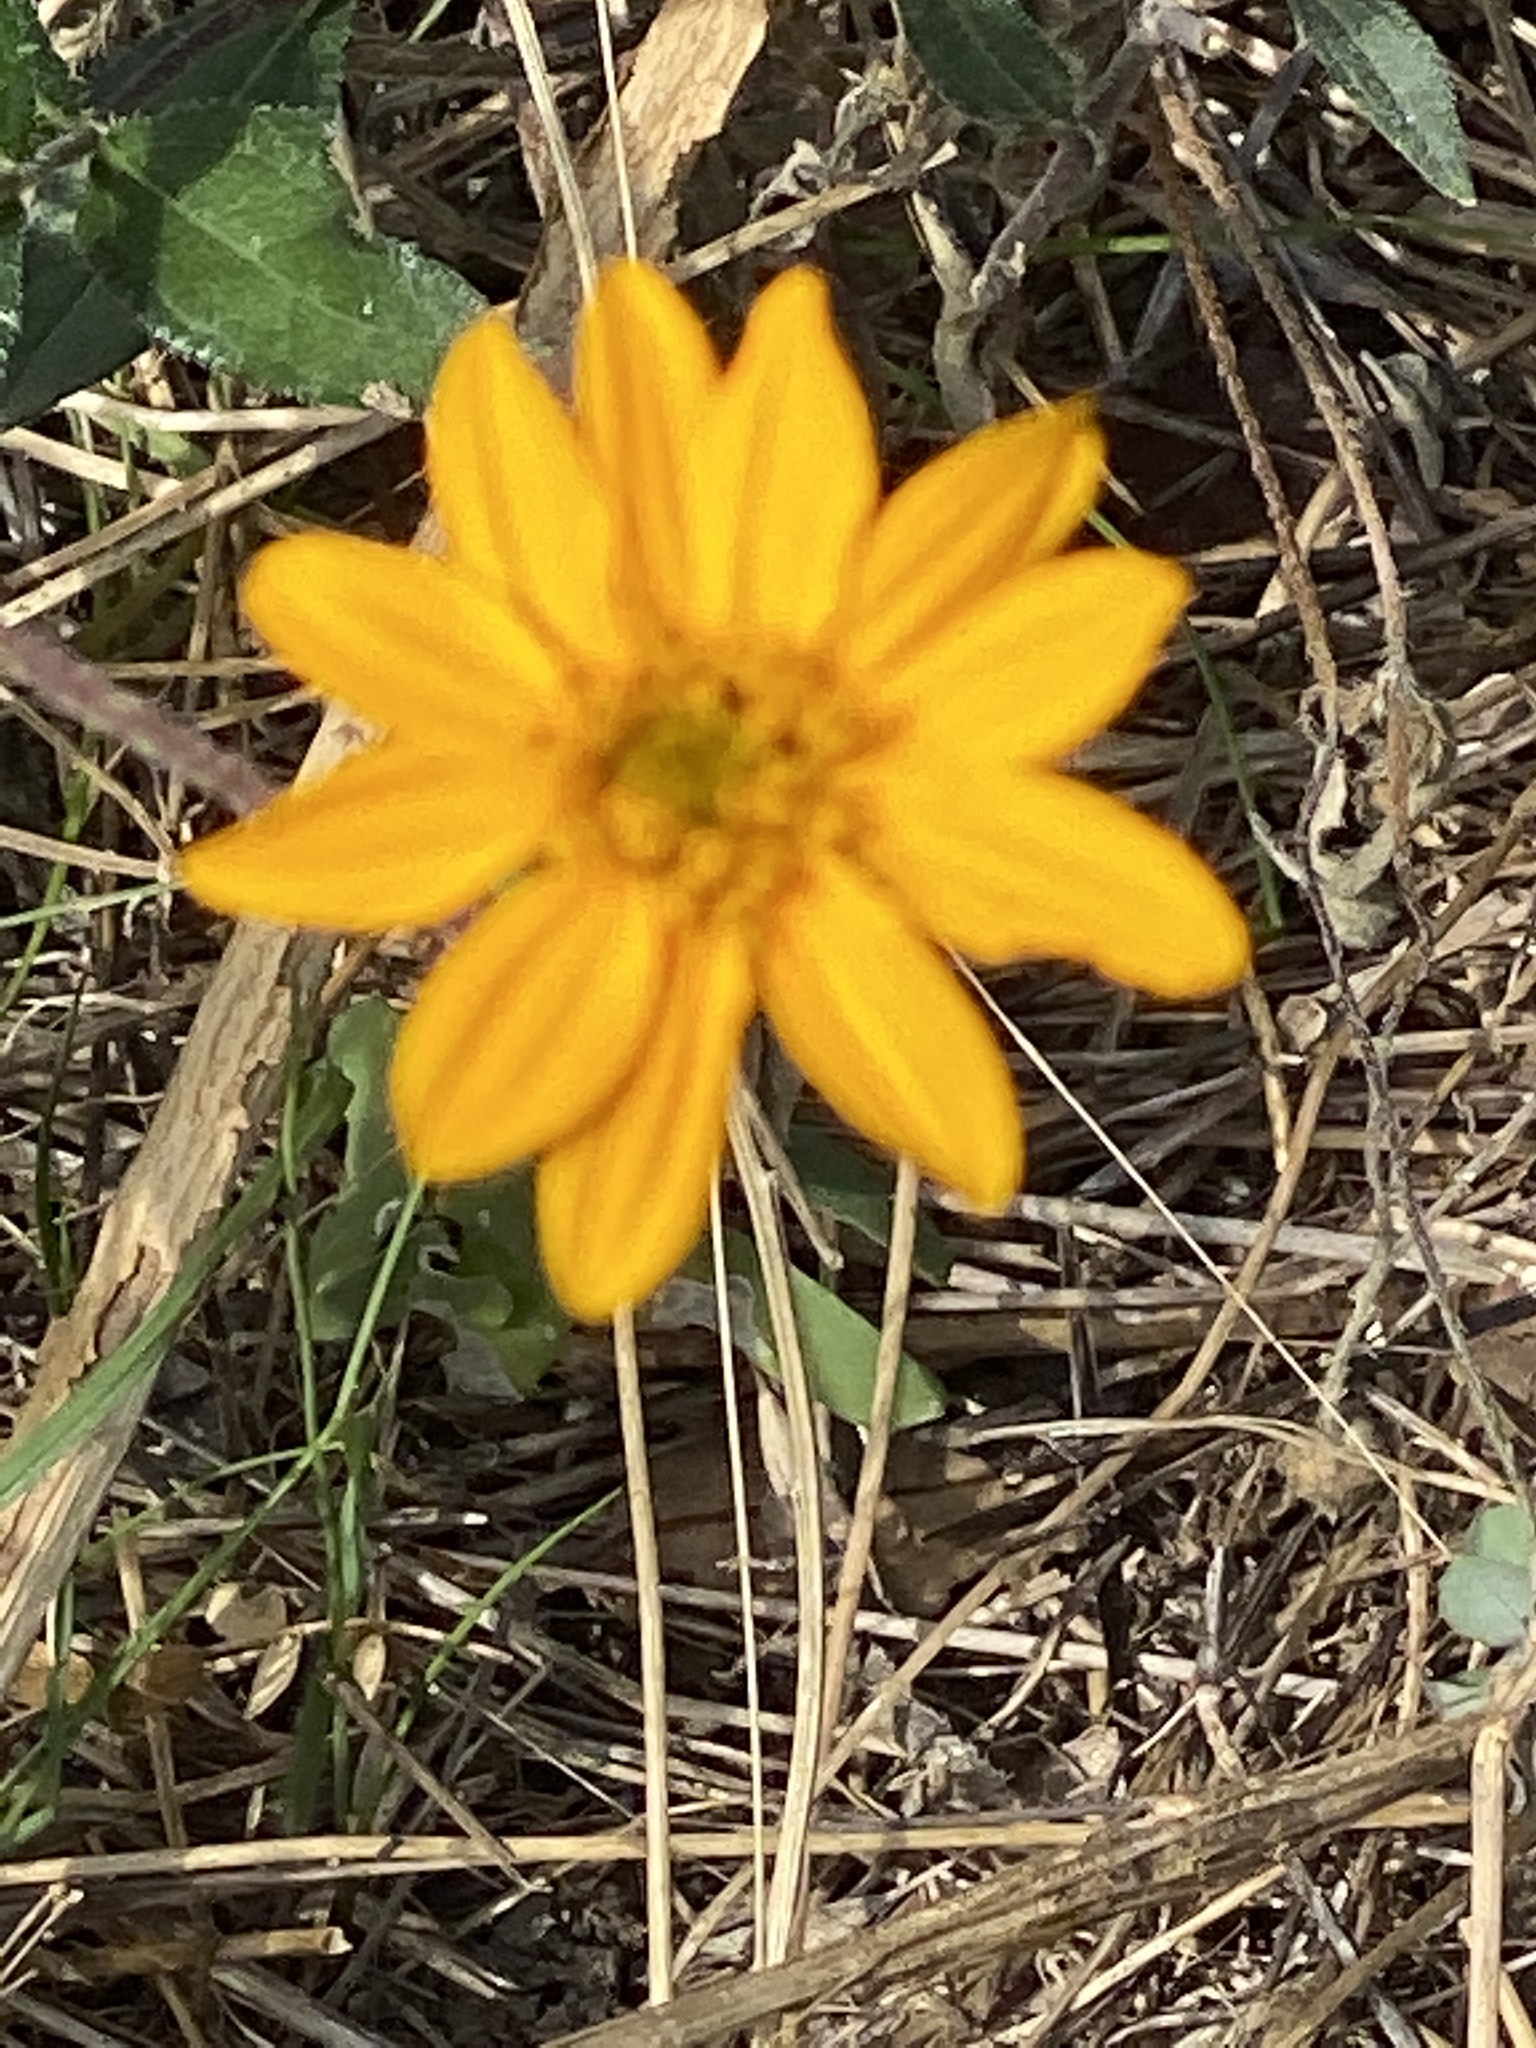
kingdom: Plantae
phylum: Tracheophyta
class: Magnoliopsida
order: Asterales
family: Asteraceae
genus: Wedelia
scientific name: Wedelia acapulcensis
